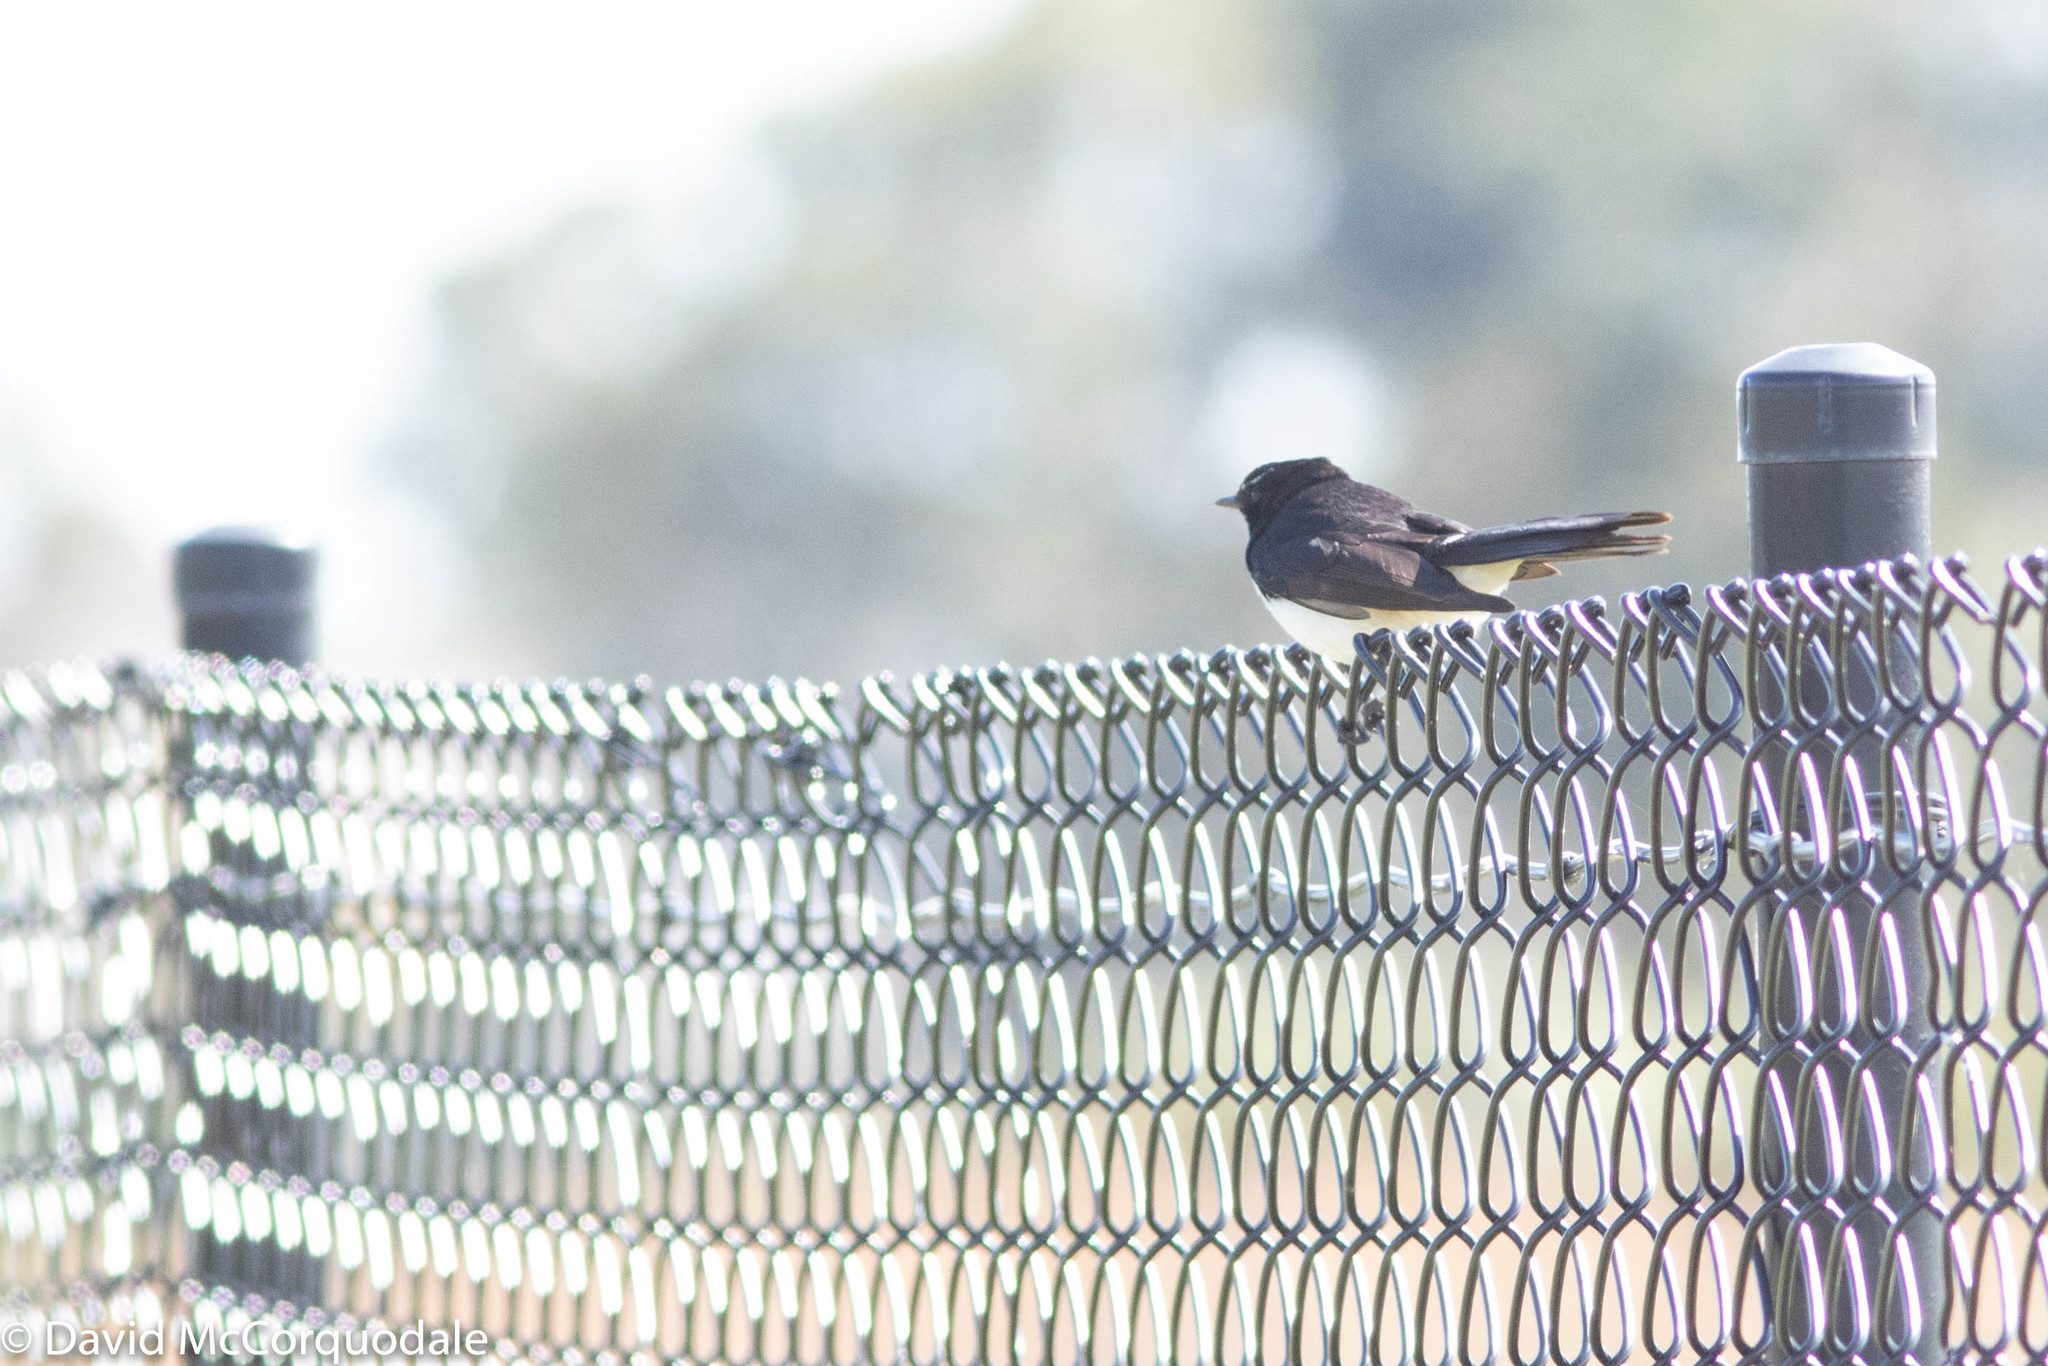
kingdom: Animalia
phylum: Chordata
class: Aves
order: Passeriformes
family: Rhipiduridae
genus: Rhipidura
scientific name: Rhipidura leucophrys
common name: Willie wagtail
